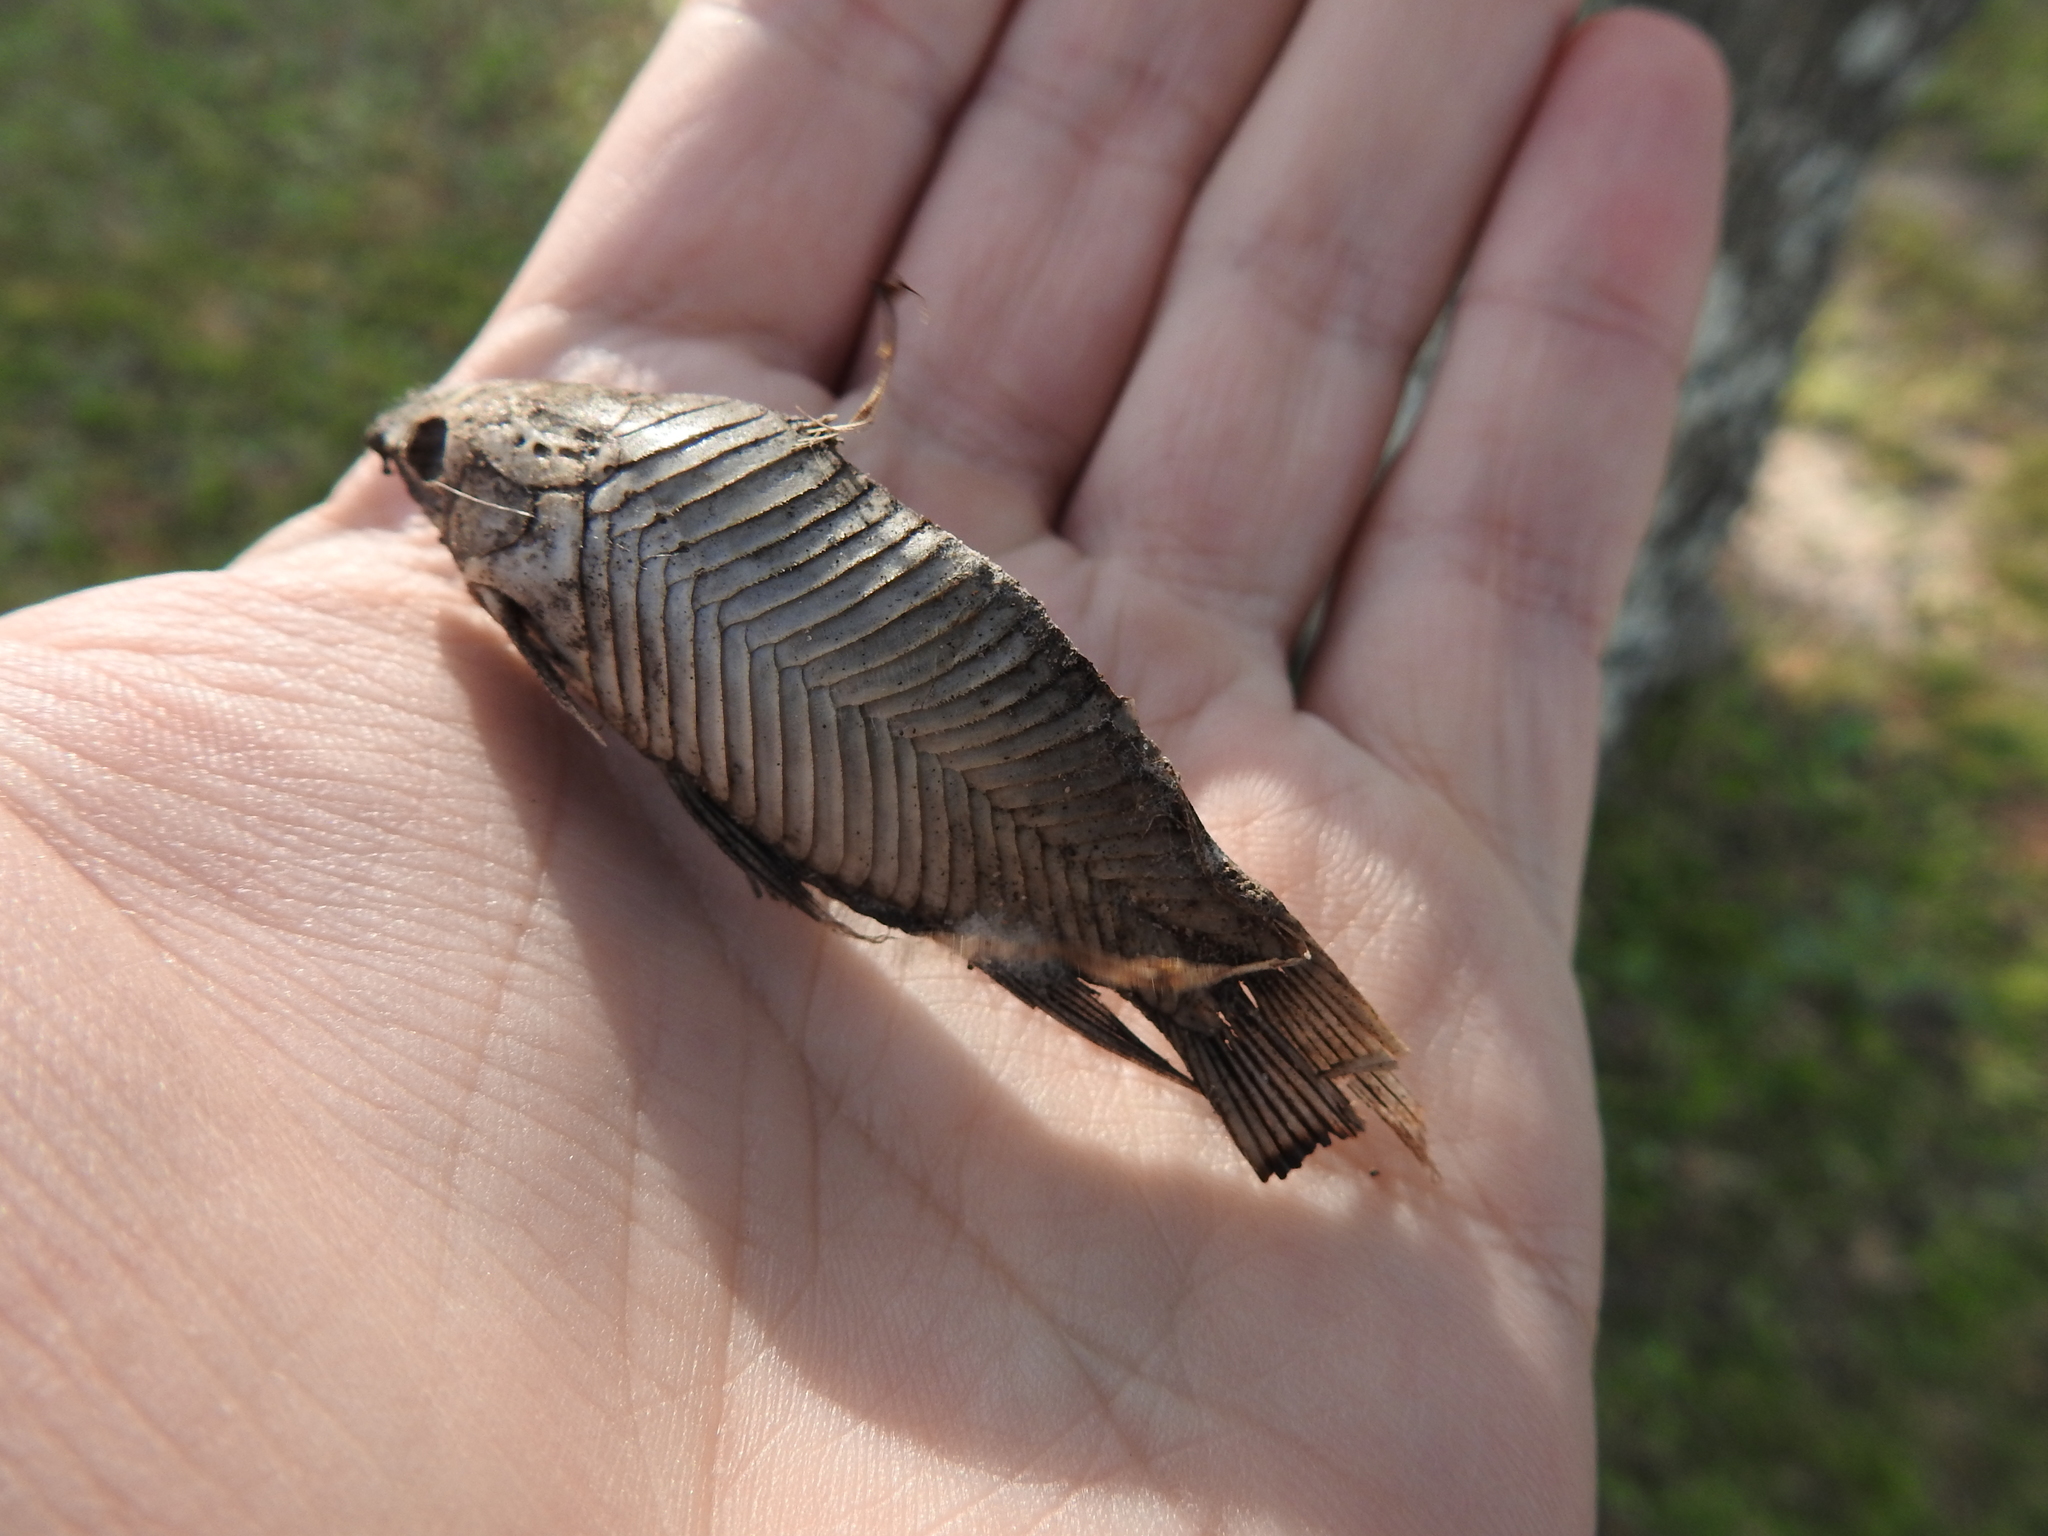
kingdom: Animalia
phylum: Chordata
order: Siluriformes
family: Callichthyidae
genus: Hoplosternum
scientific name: Hoplosternum littorale
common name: Brown hoplo
